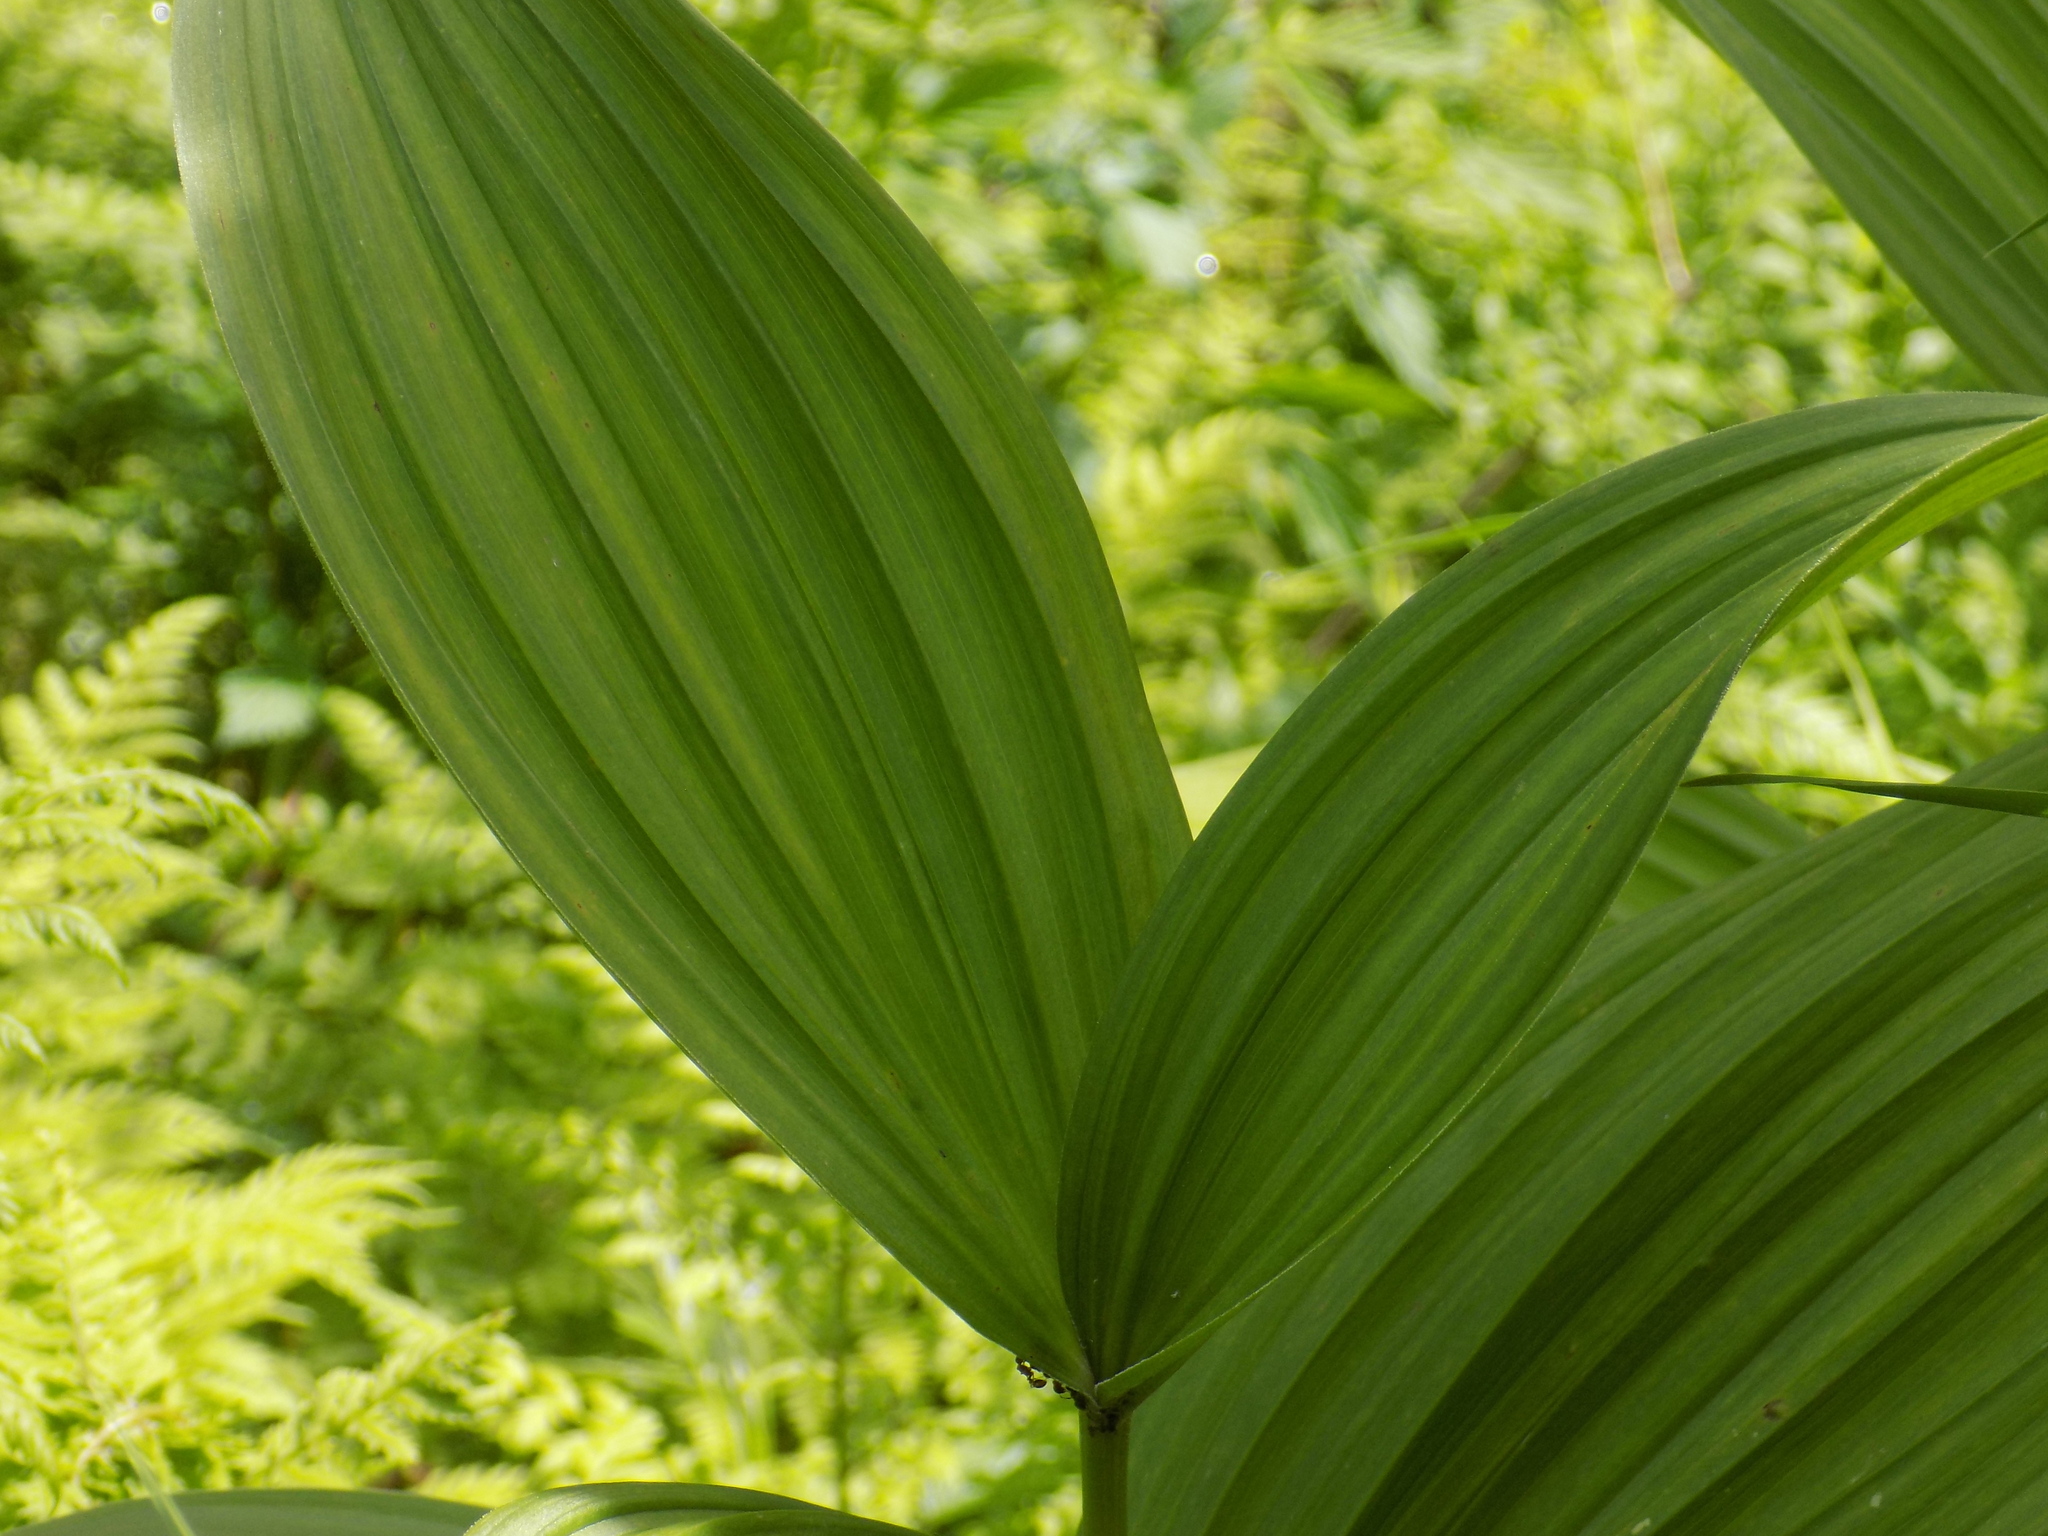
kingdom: Plantae
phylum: Tracheophyta
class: Liliopsida
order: Liliales
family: Melanthiaceae
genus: Veratrum
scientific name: Veratrum lobelianum
